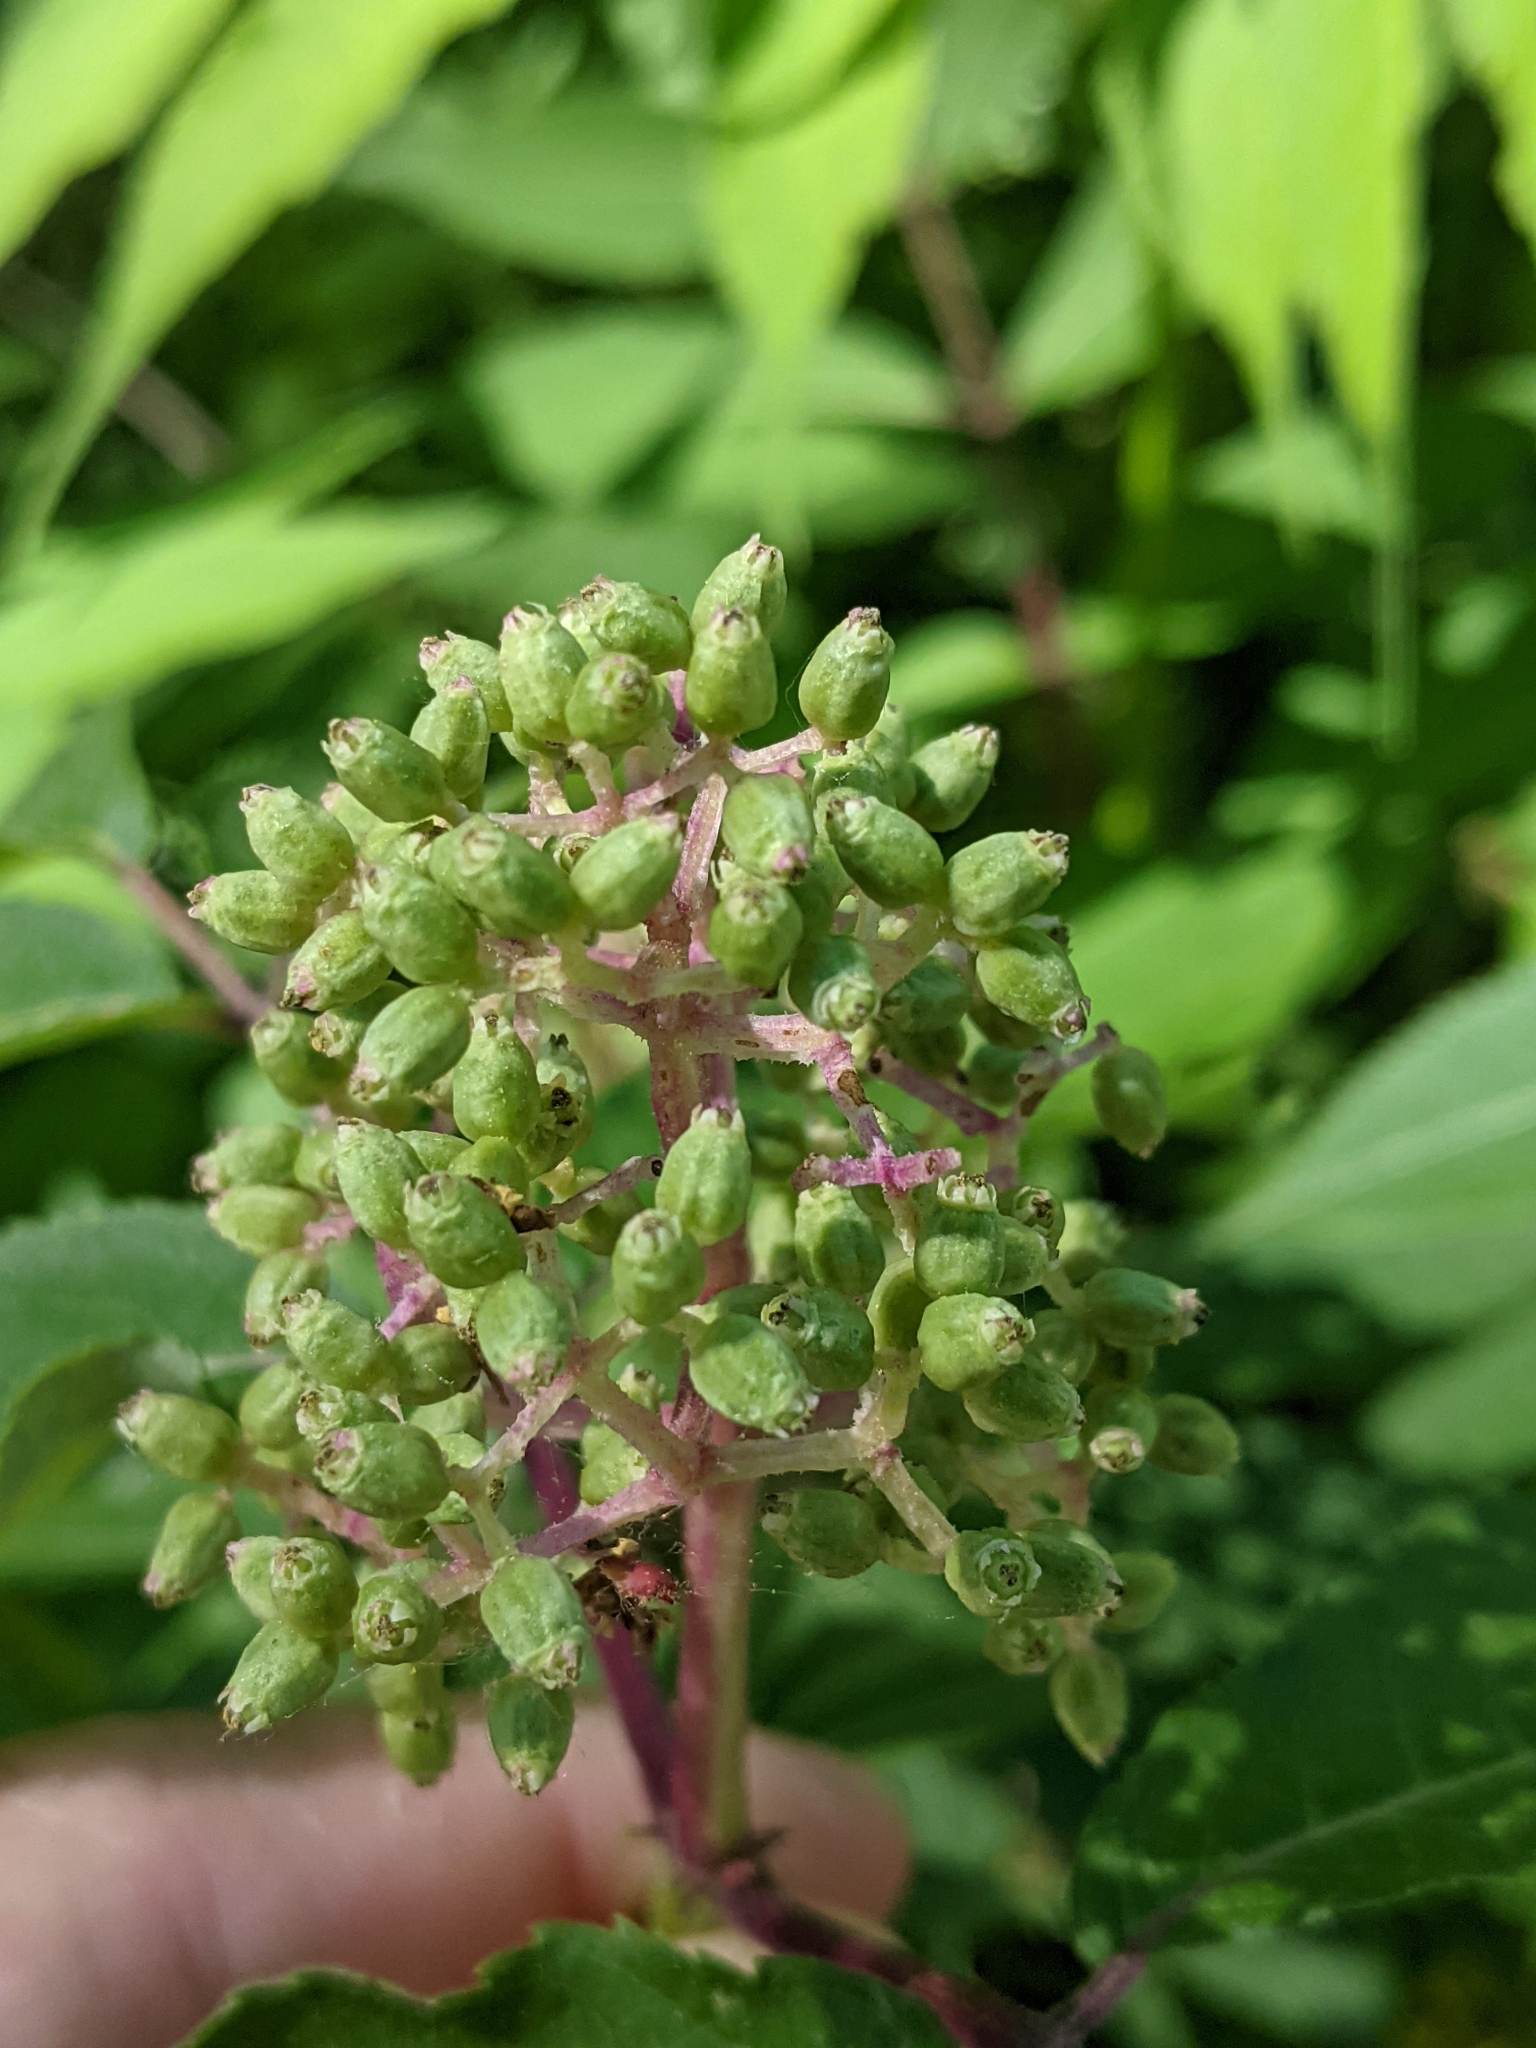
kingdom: Plantae
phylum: Tracheophyta
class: Magnoliopsida
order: Dipsacales
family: Viburnaceae
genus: Sambucus
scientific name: Sambucus racemosa
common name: Red-berried elder
